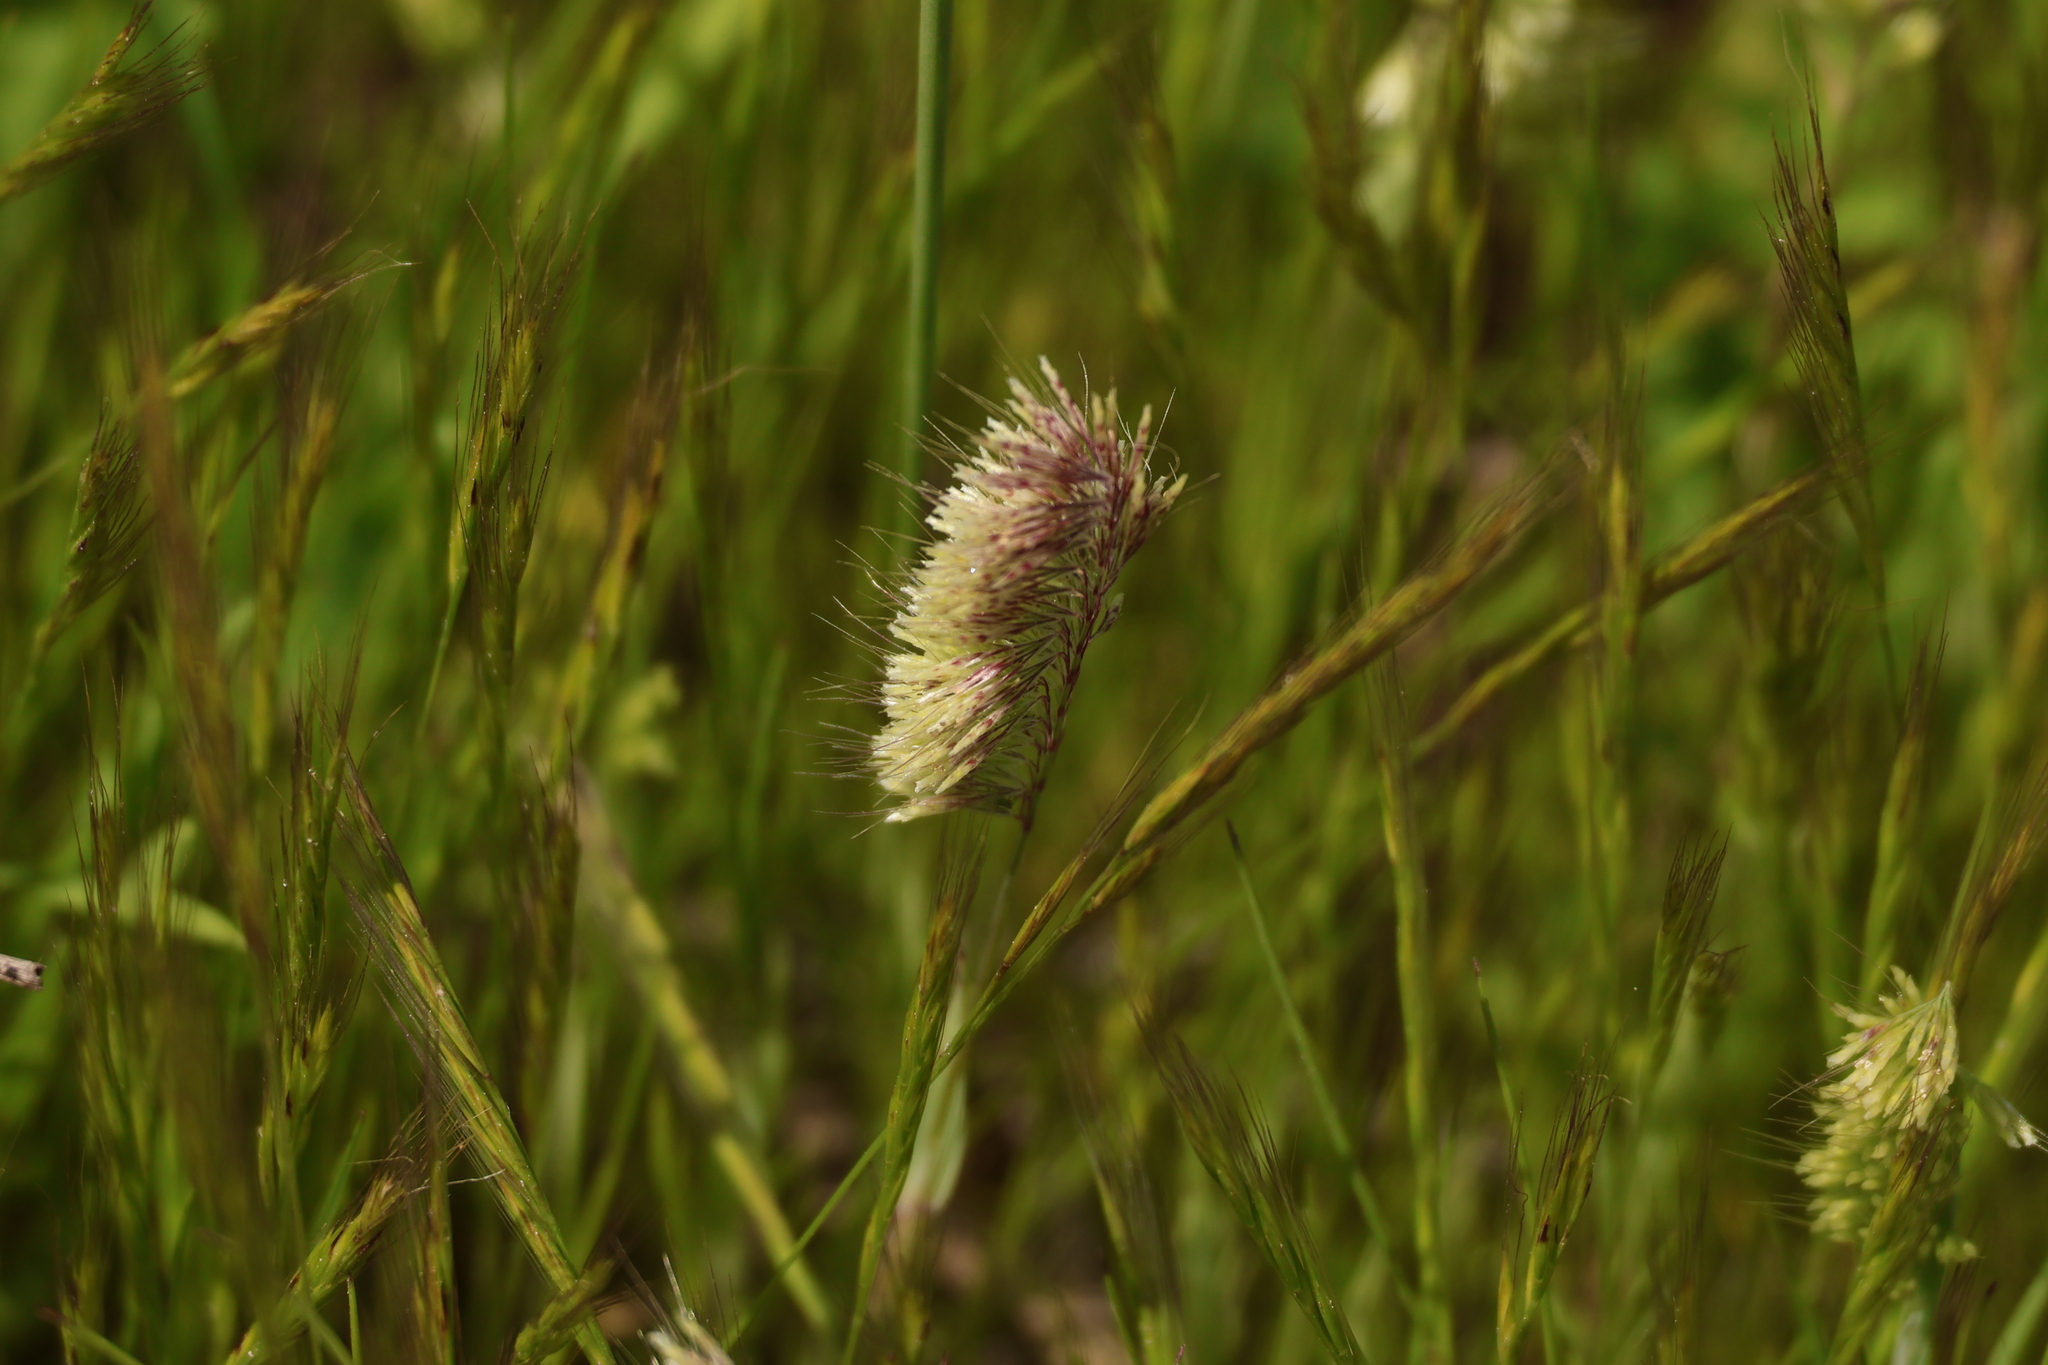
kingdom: Plantae
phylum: Tracheophyta
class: Liliopsida
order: Poales
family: Poaceae
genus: Lamarckia
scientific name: Lamarckia aurea
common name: Golden dog's-tail
